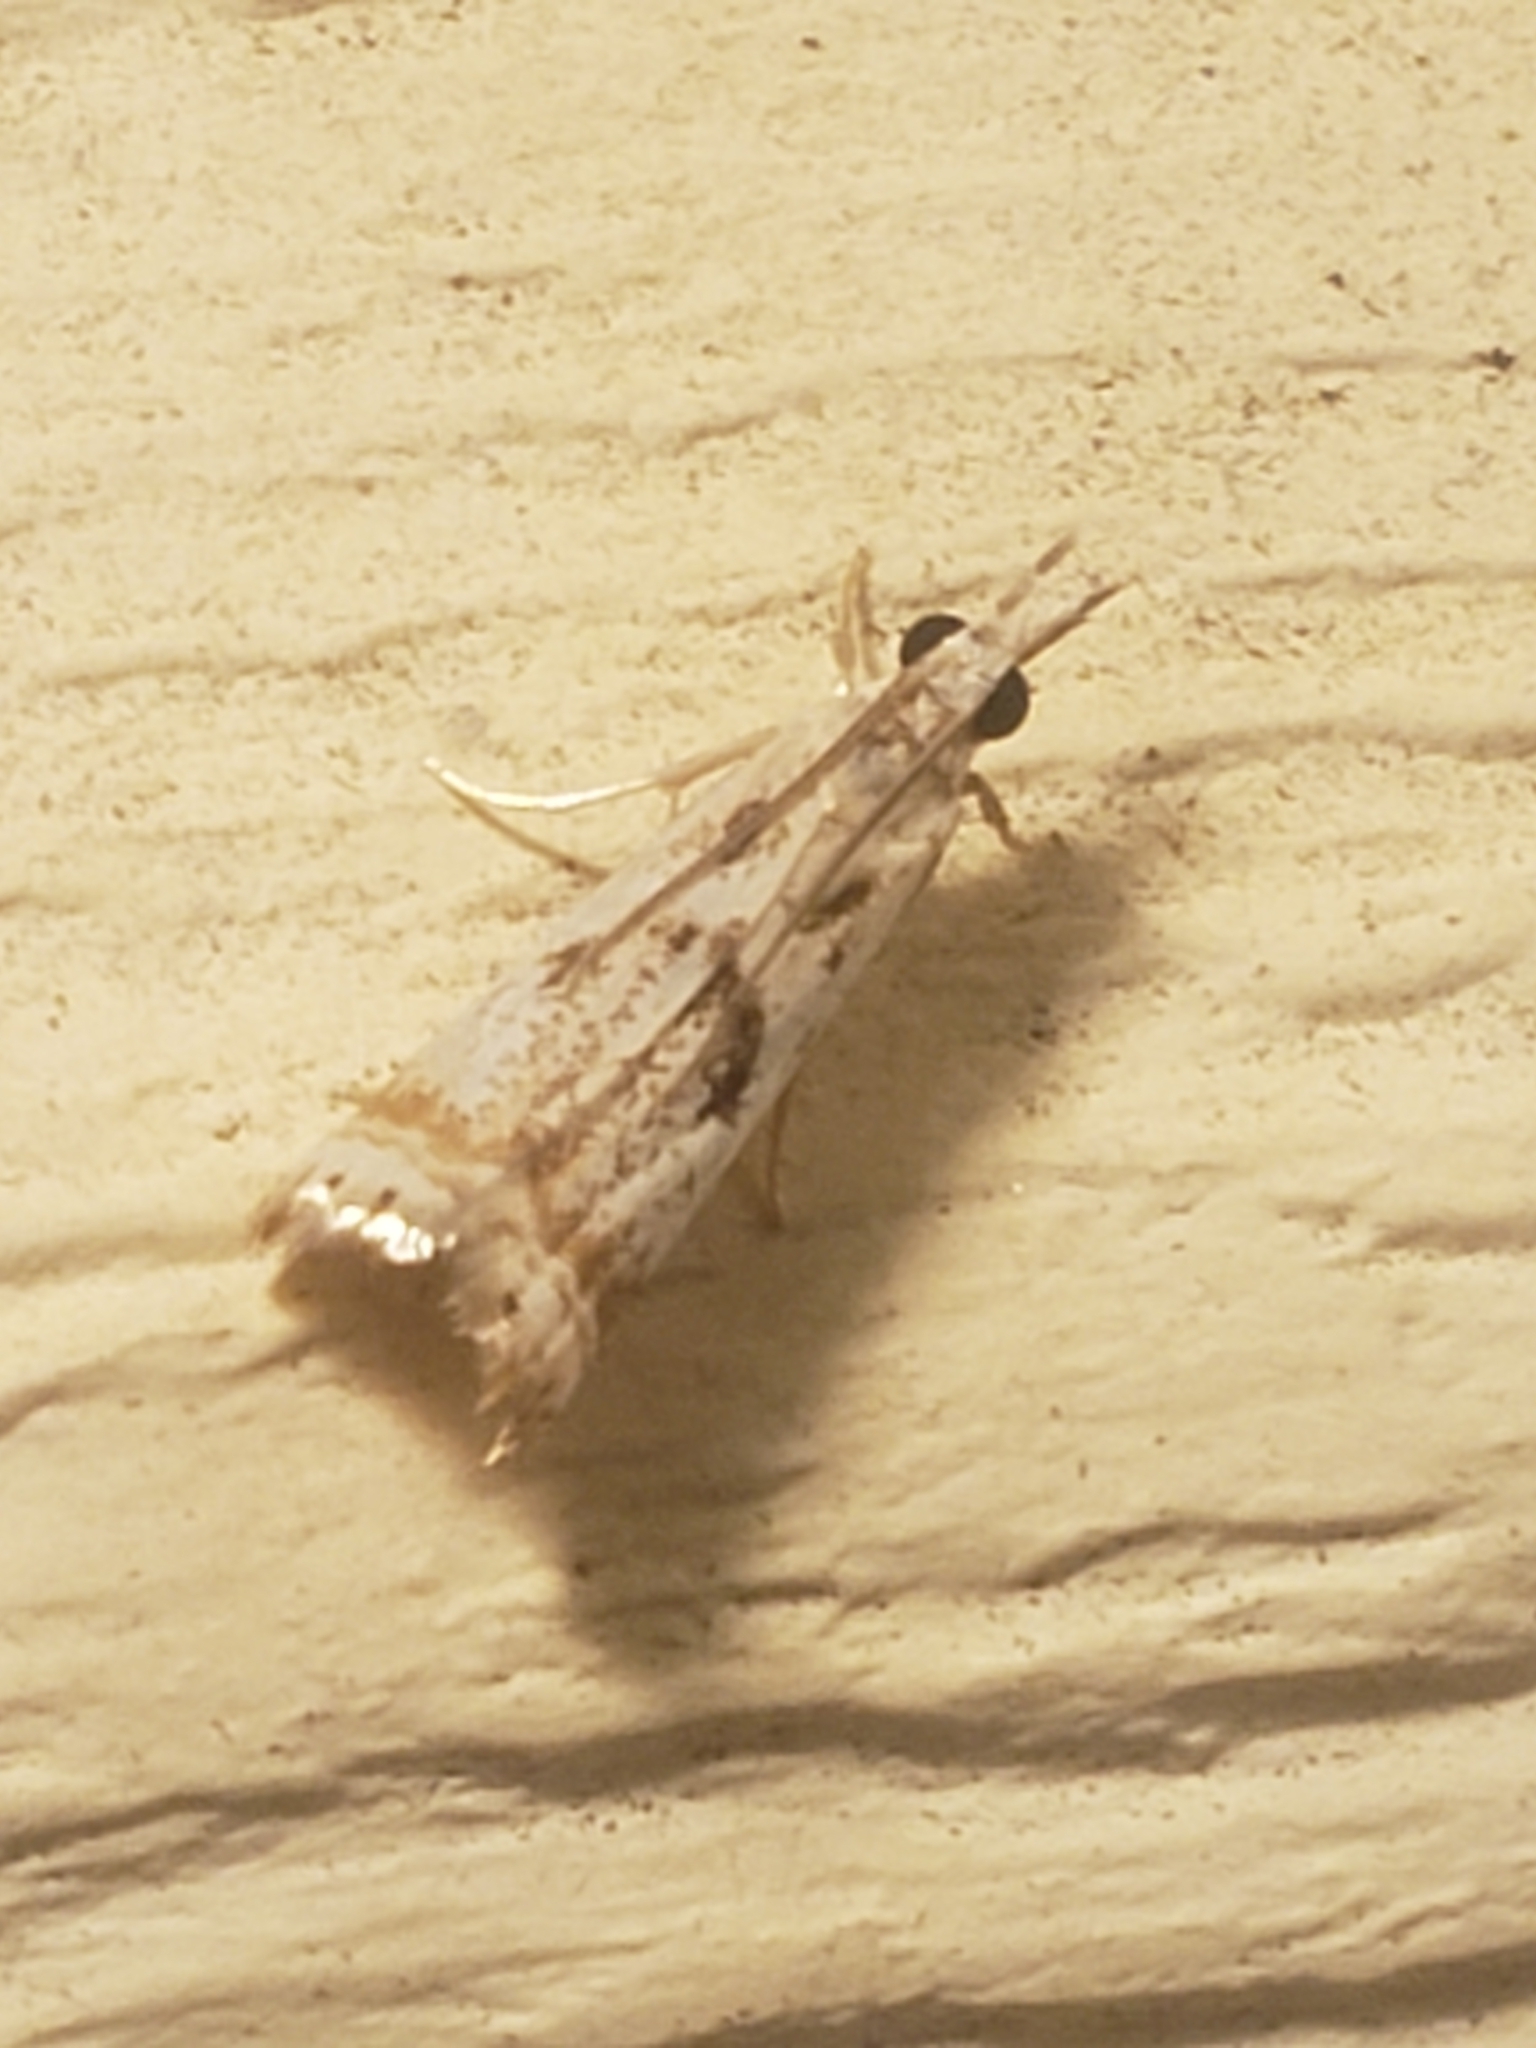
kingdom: Animalia
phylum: Arthropoda
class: Insecta
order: Lepidoptera
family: Crambidae
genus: Microcrambus
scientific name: Microcrambus elegans
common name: Elegant grass-veneer
